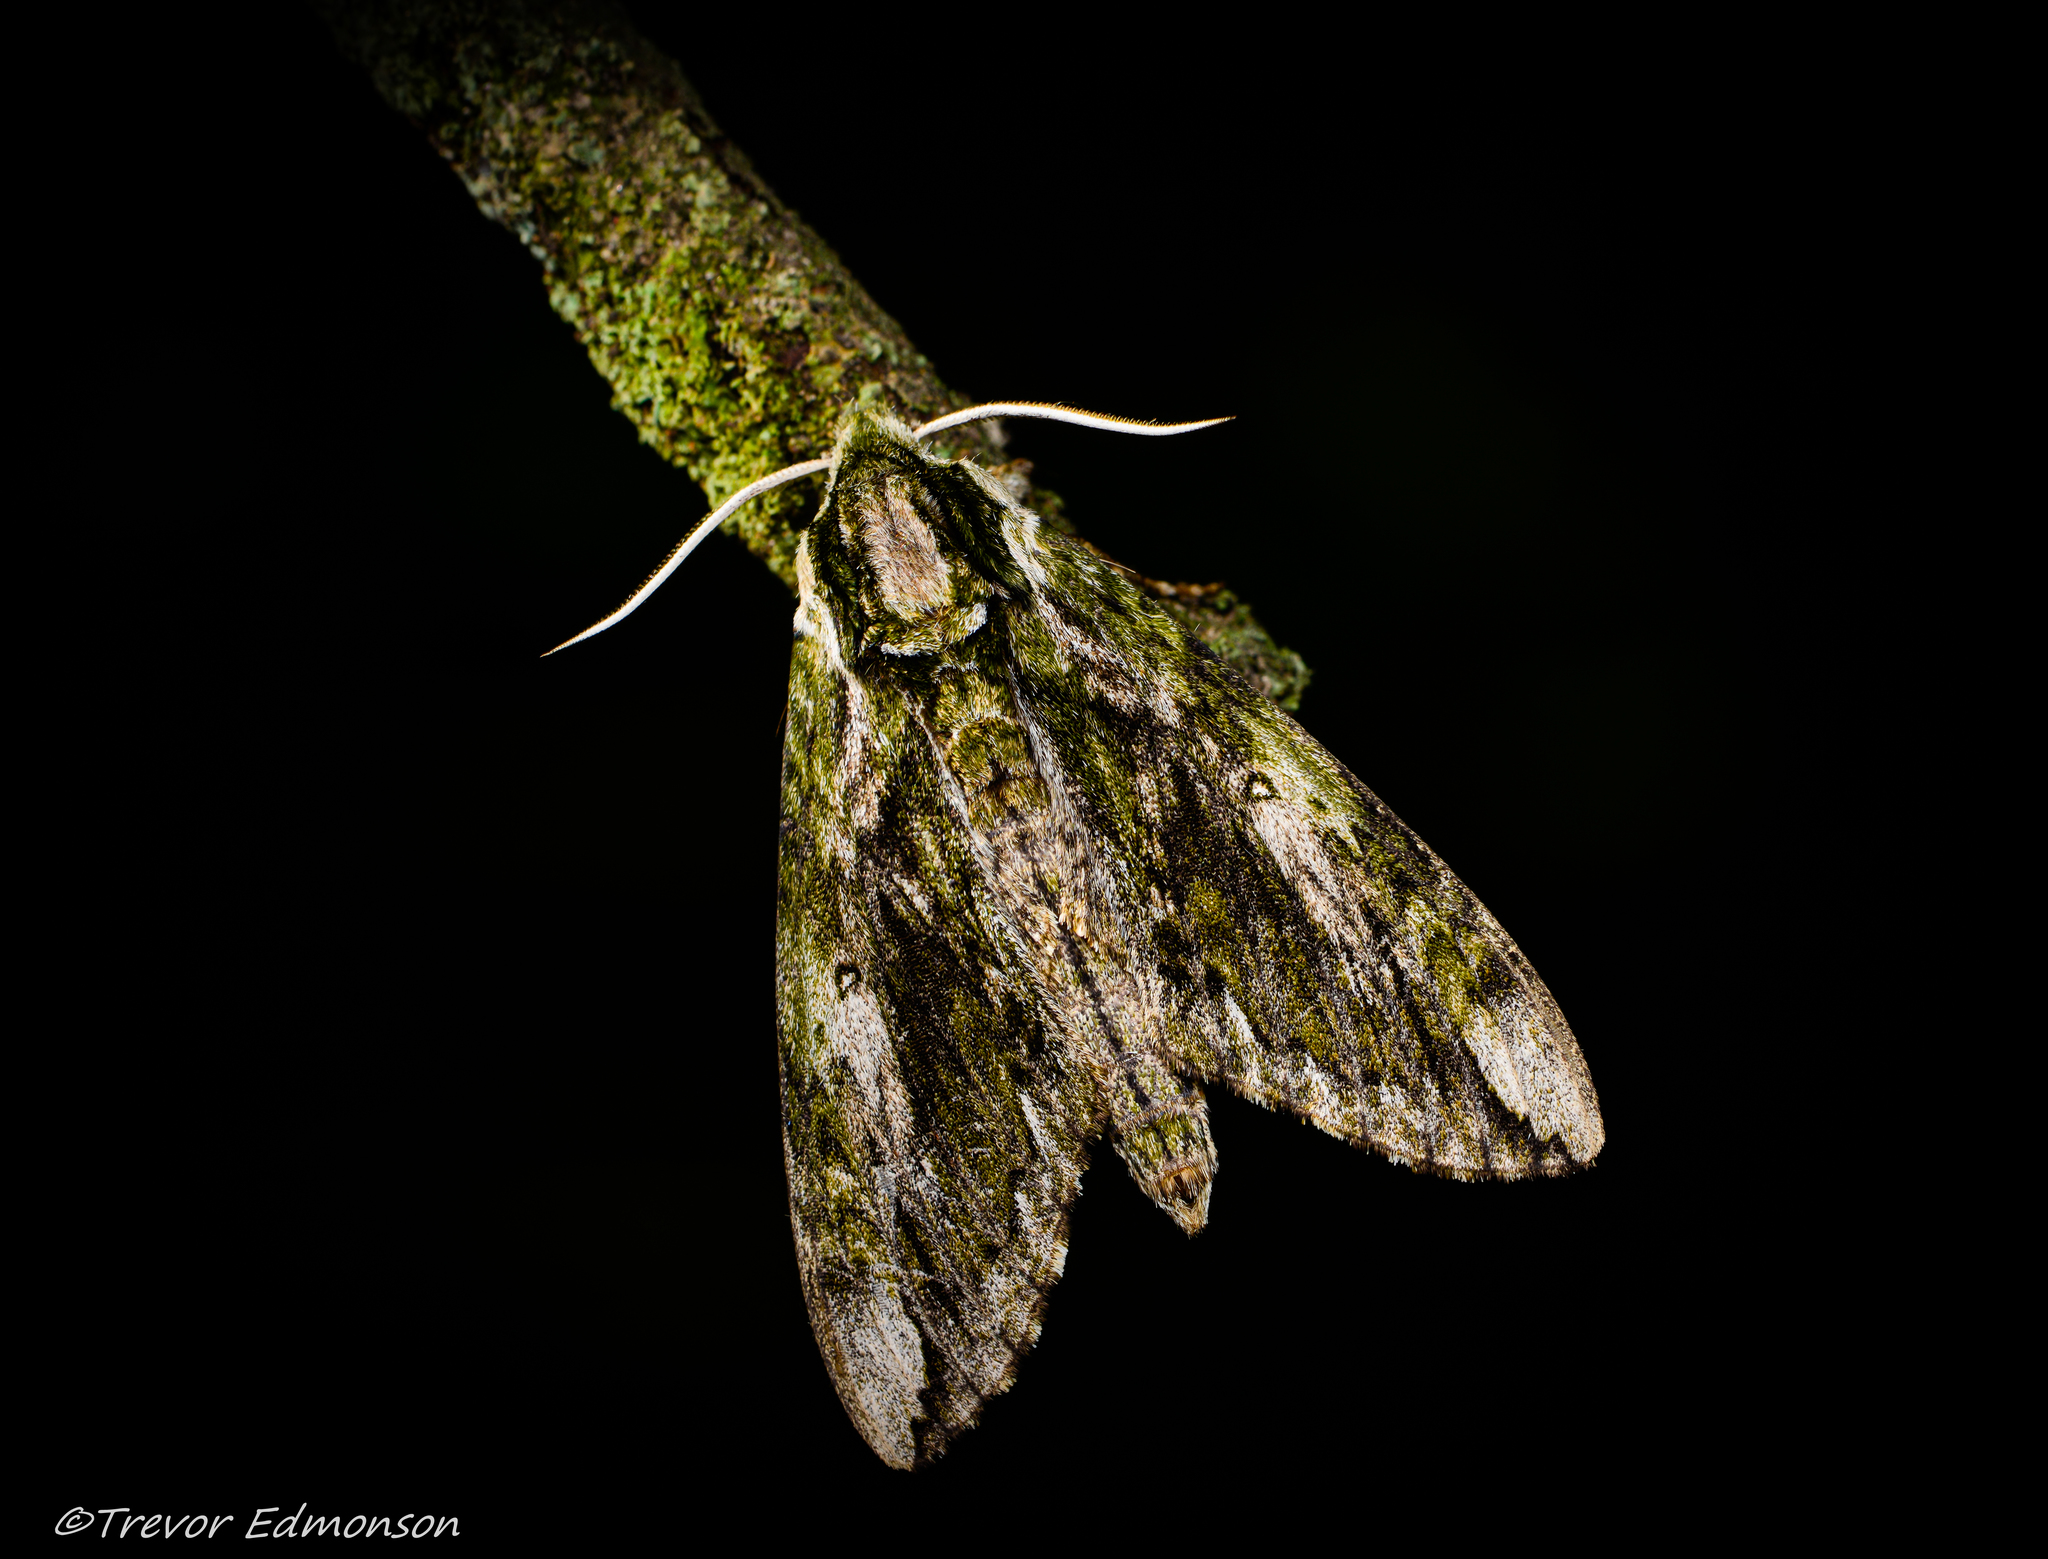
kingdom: Animalia
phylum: Arthropoda
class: Insecta
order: Lepidoptera
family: Sphingidae
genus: Ceratomia
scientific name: Ceratomia hageni
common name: Hagen's sphinx
